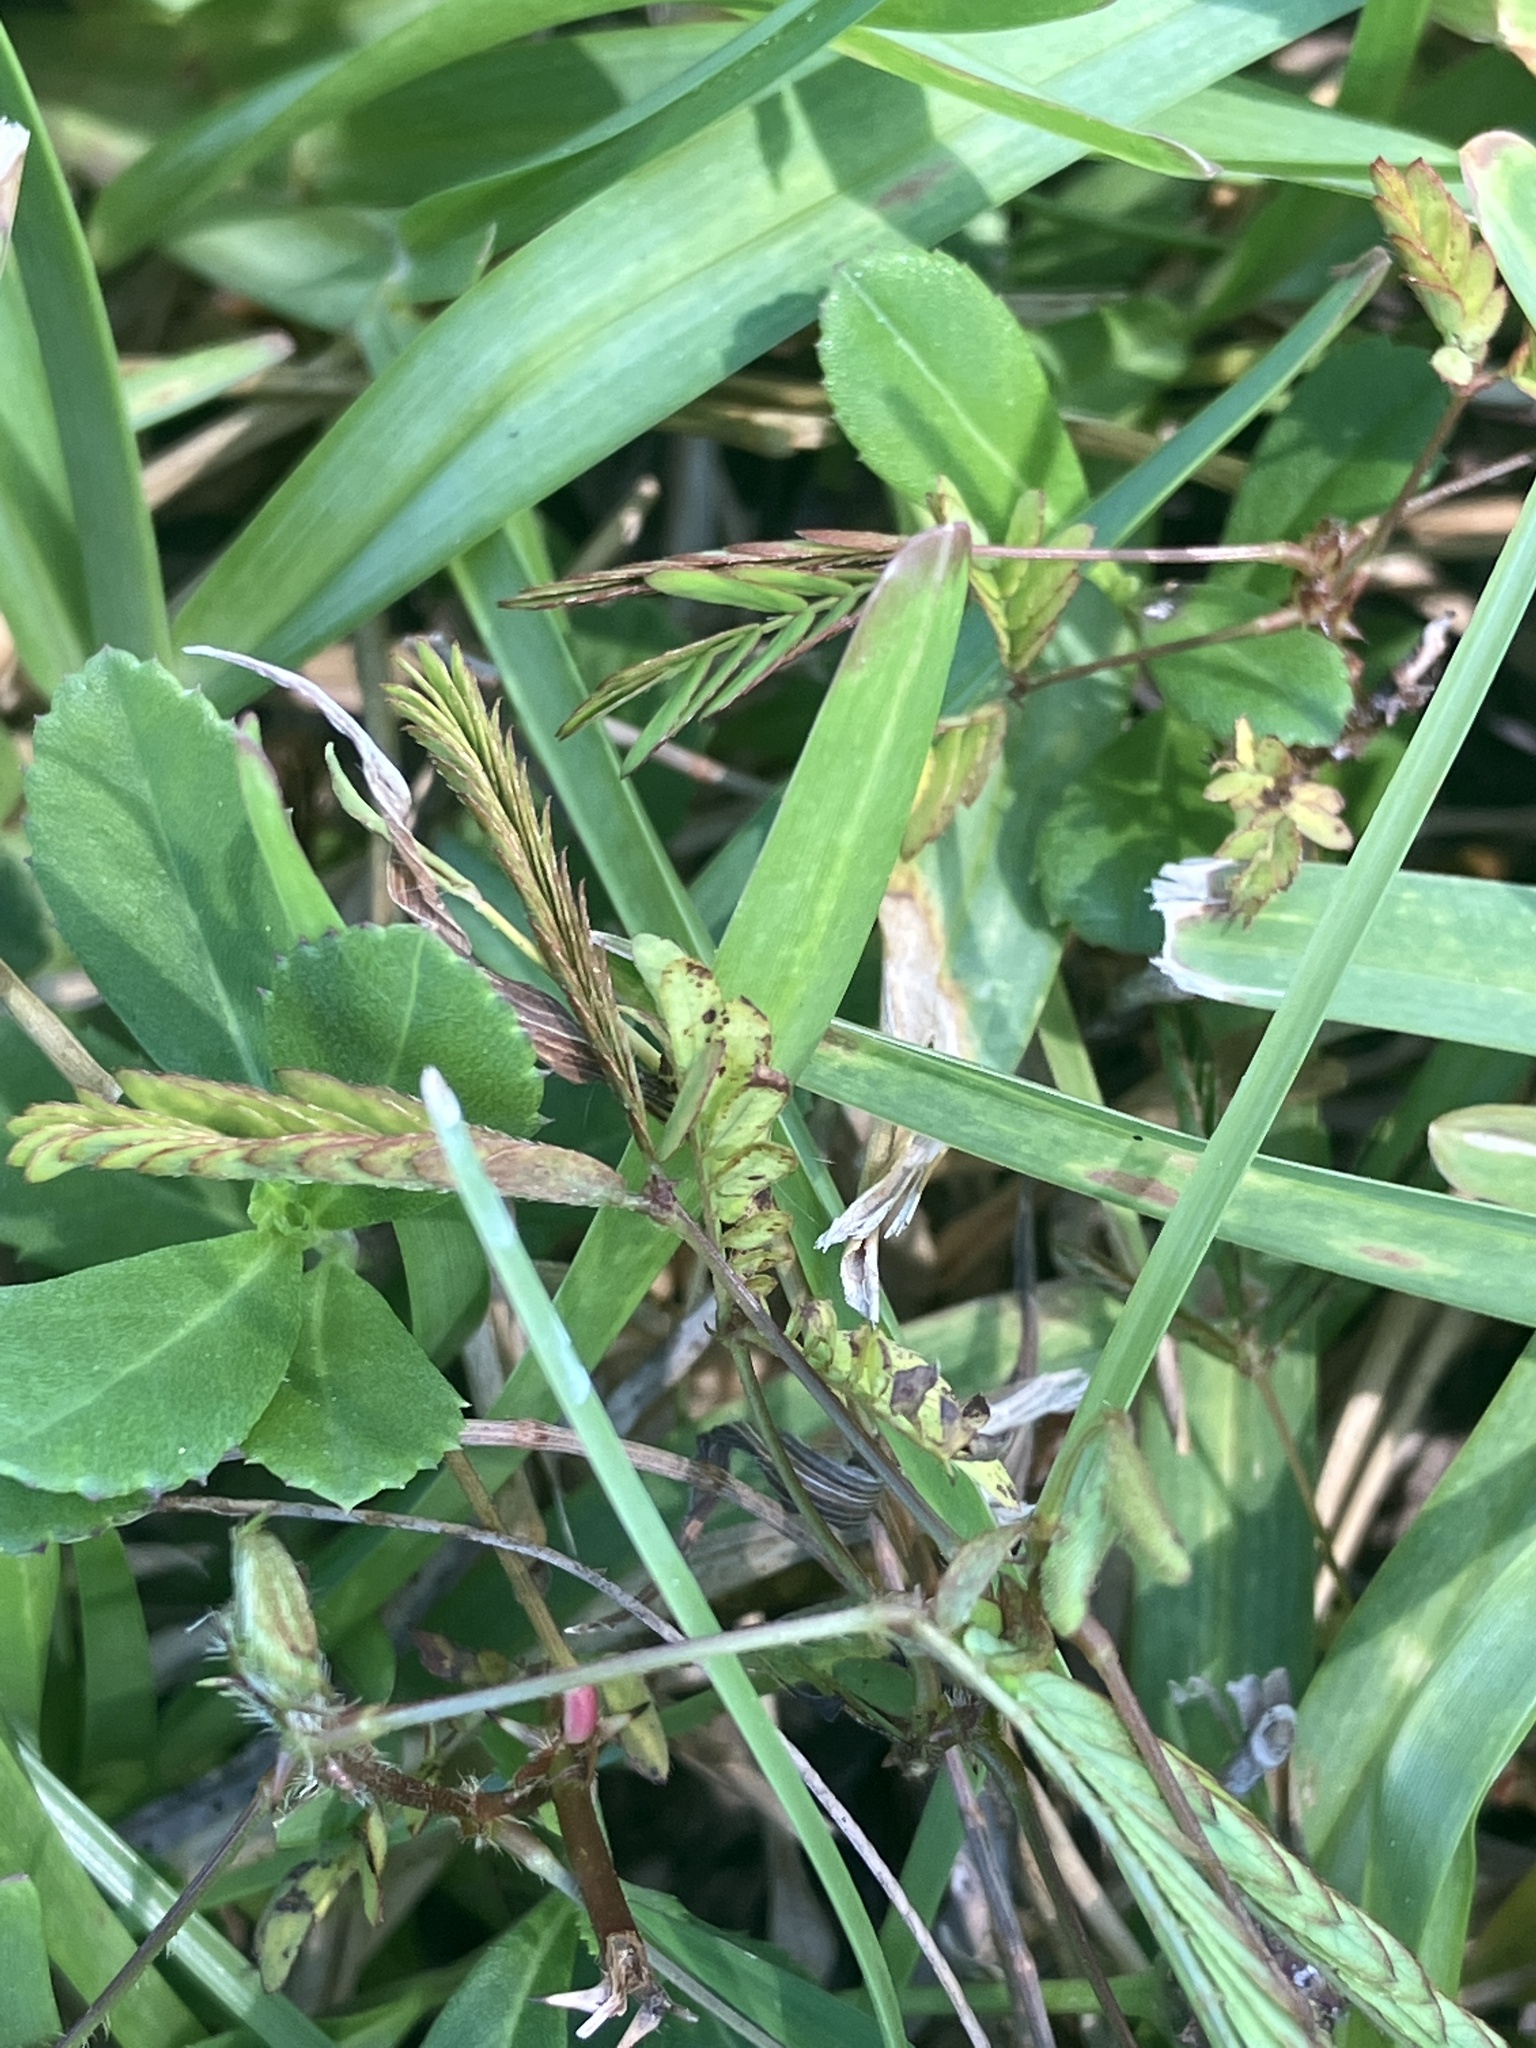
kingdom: Plantae
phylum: Tracheophyta
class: Magnoliopsida
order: Fabales
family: Fabaceae
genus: Mimosa
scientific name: Mimosa pudica
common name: Sensitive plant
